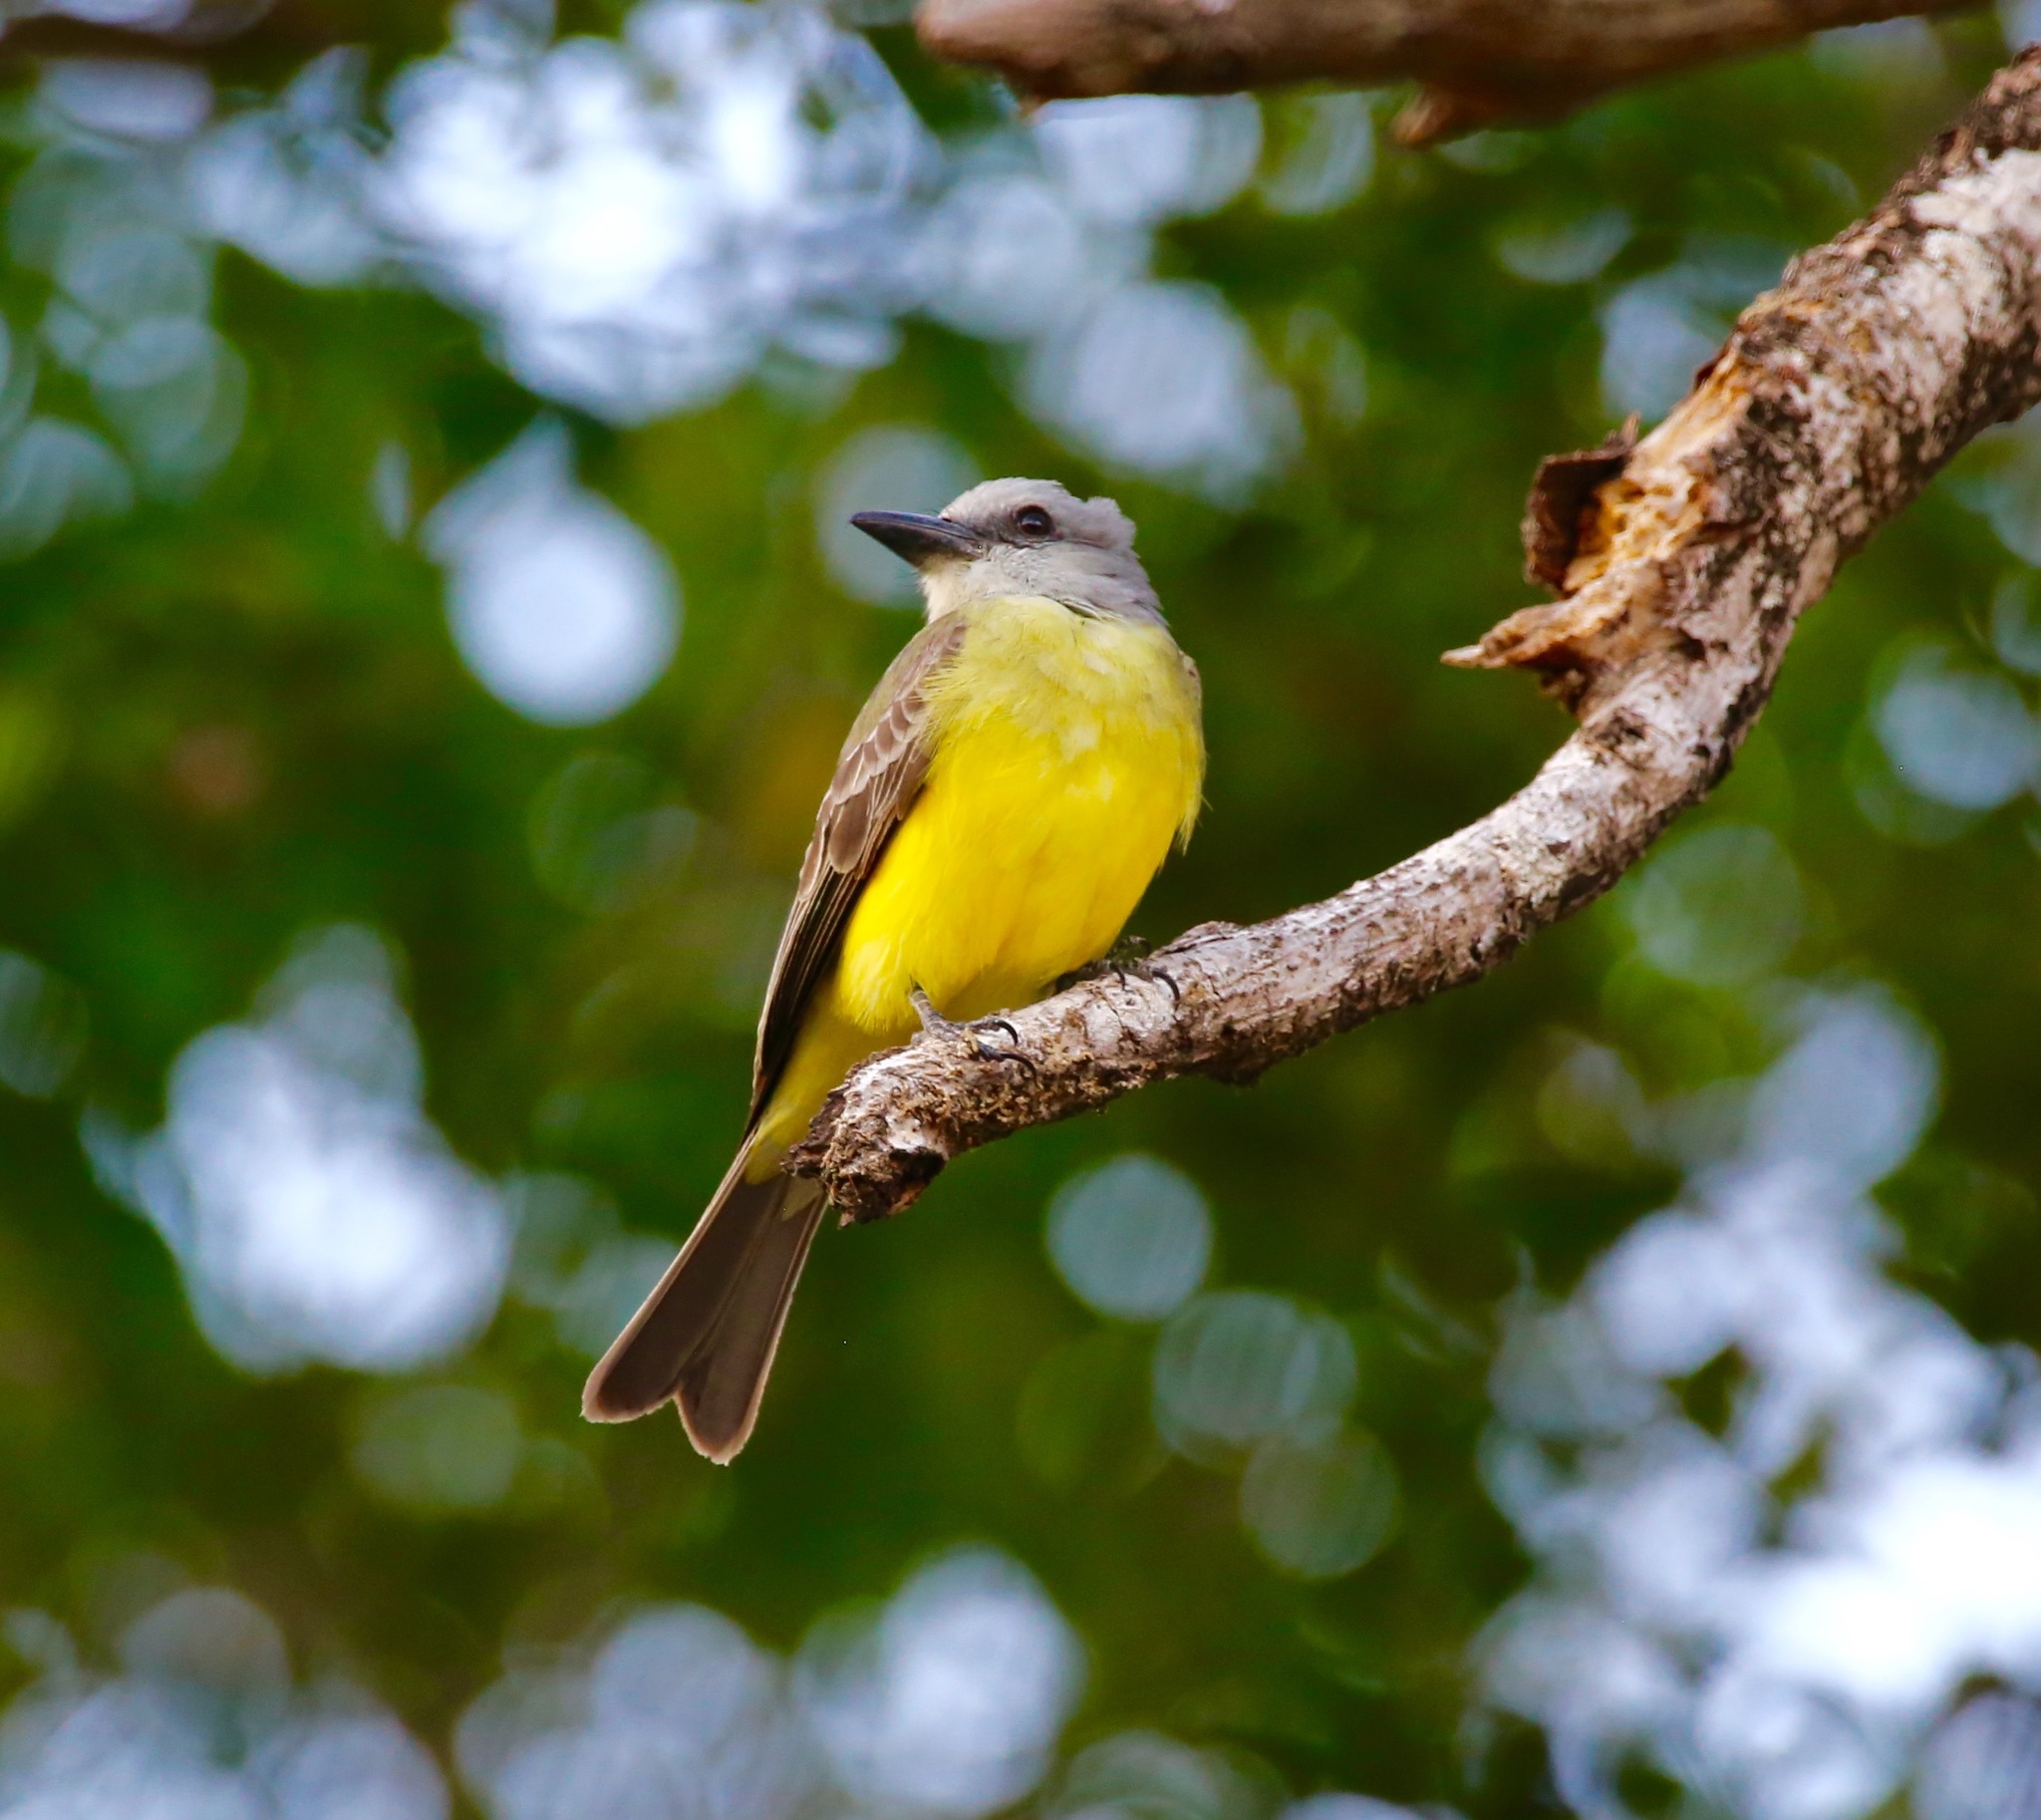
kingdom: Animalia
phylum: Chordata
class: Aves
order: Passeriformes
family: Tyrannidae
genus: Tyrannus
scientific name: Tyrannus melancholicus
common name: Tropical kingbird
